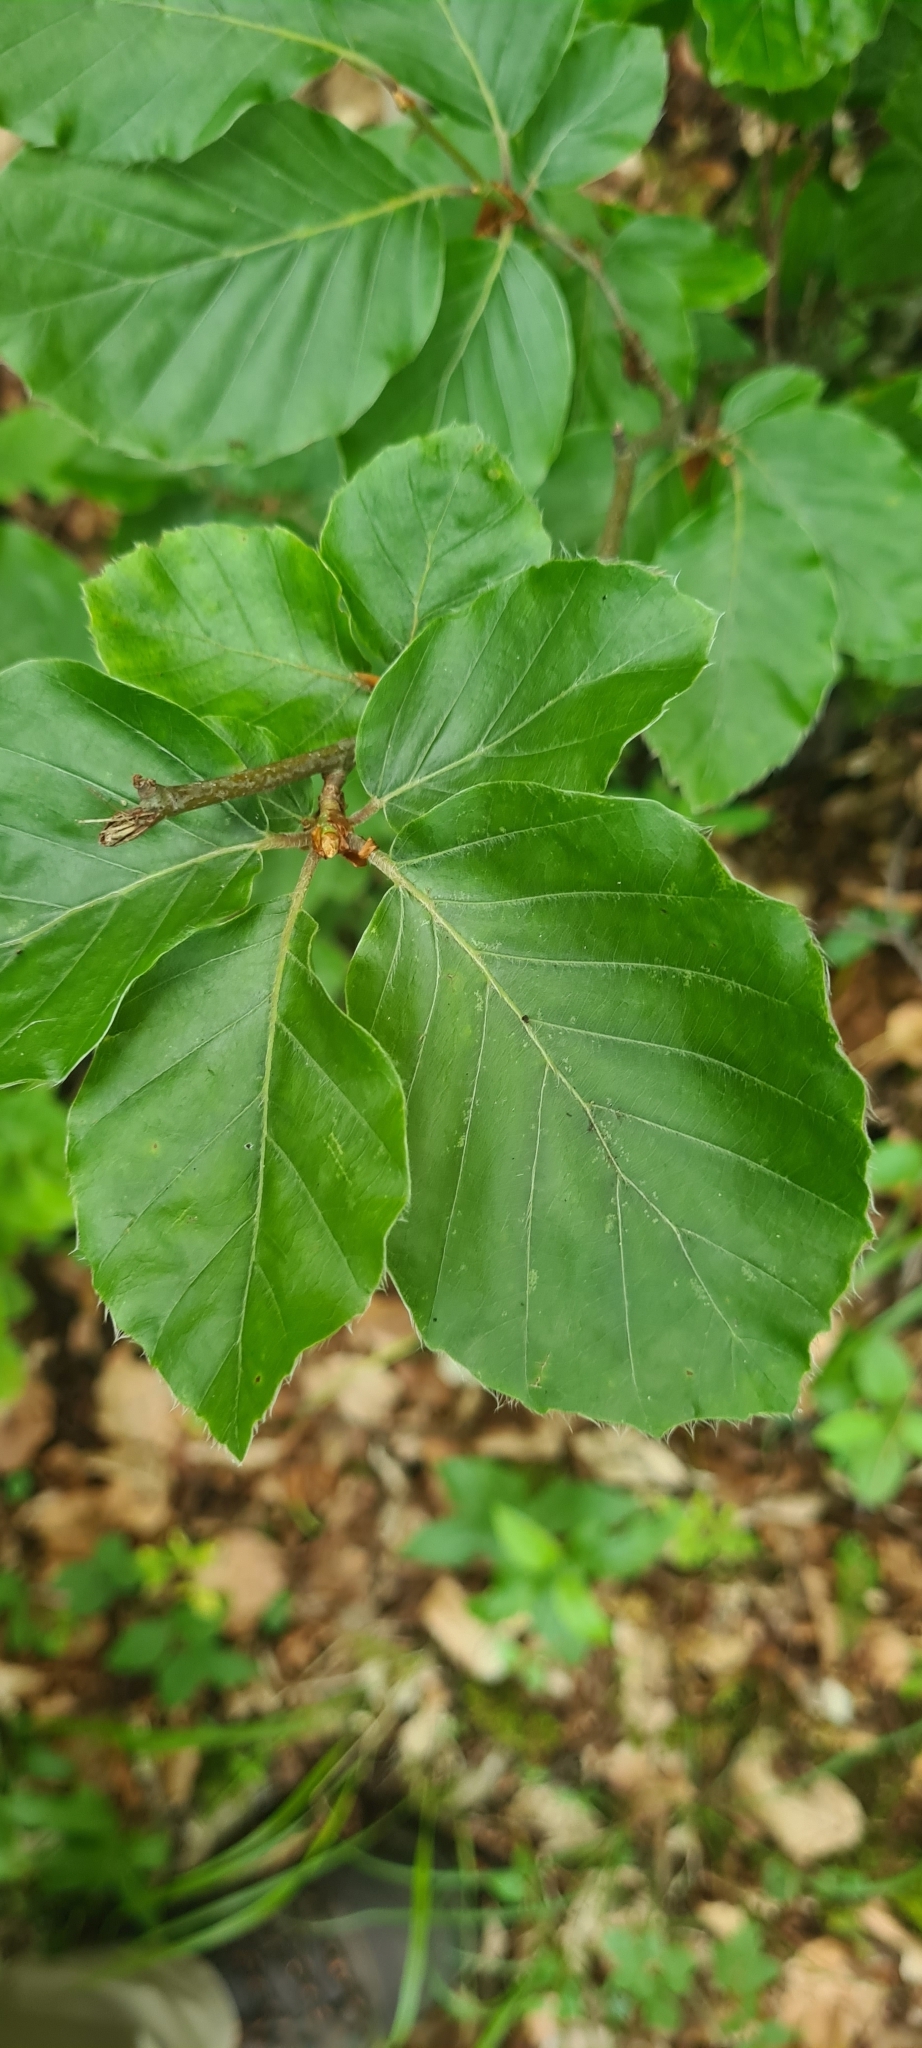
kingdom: Plantae
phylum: Tracheophyta
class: Magnoliopsida
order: Fagales
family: Fagaceae
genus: Fagus
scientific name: Fagus sylvatica
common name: Beech
